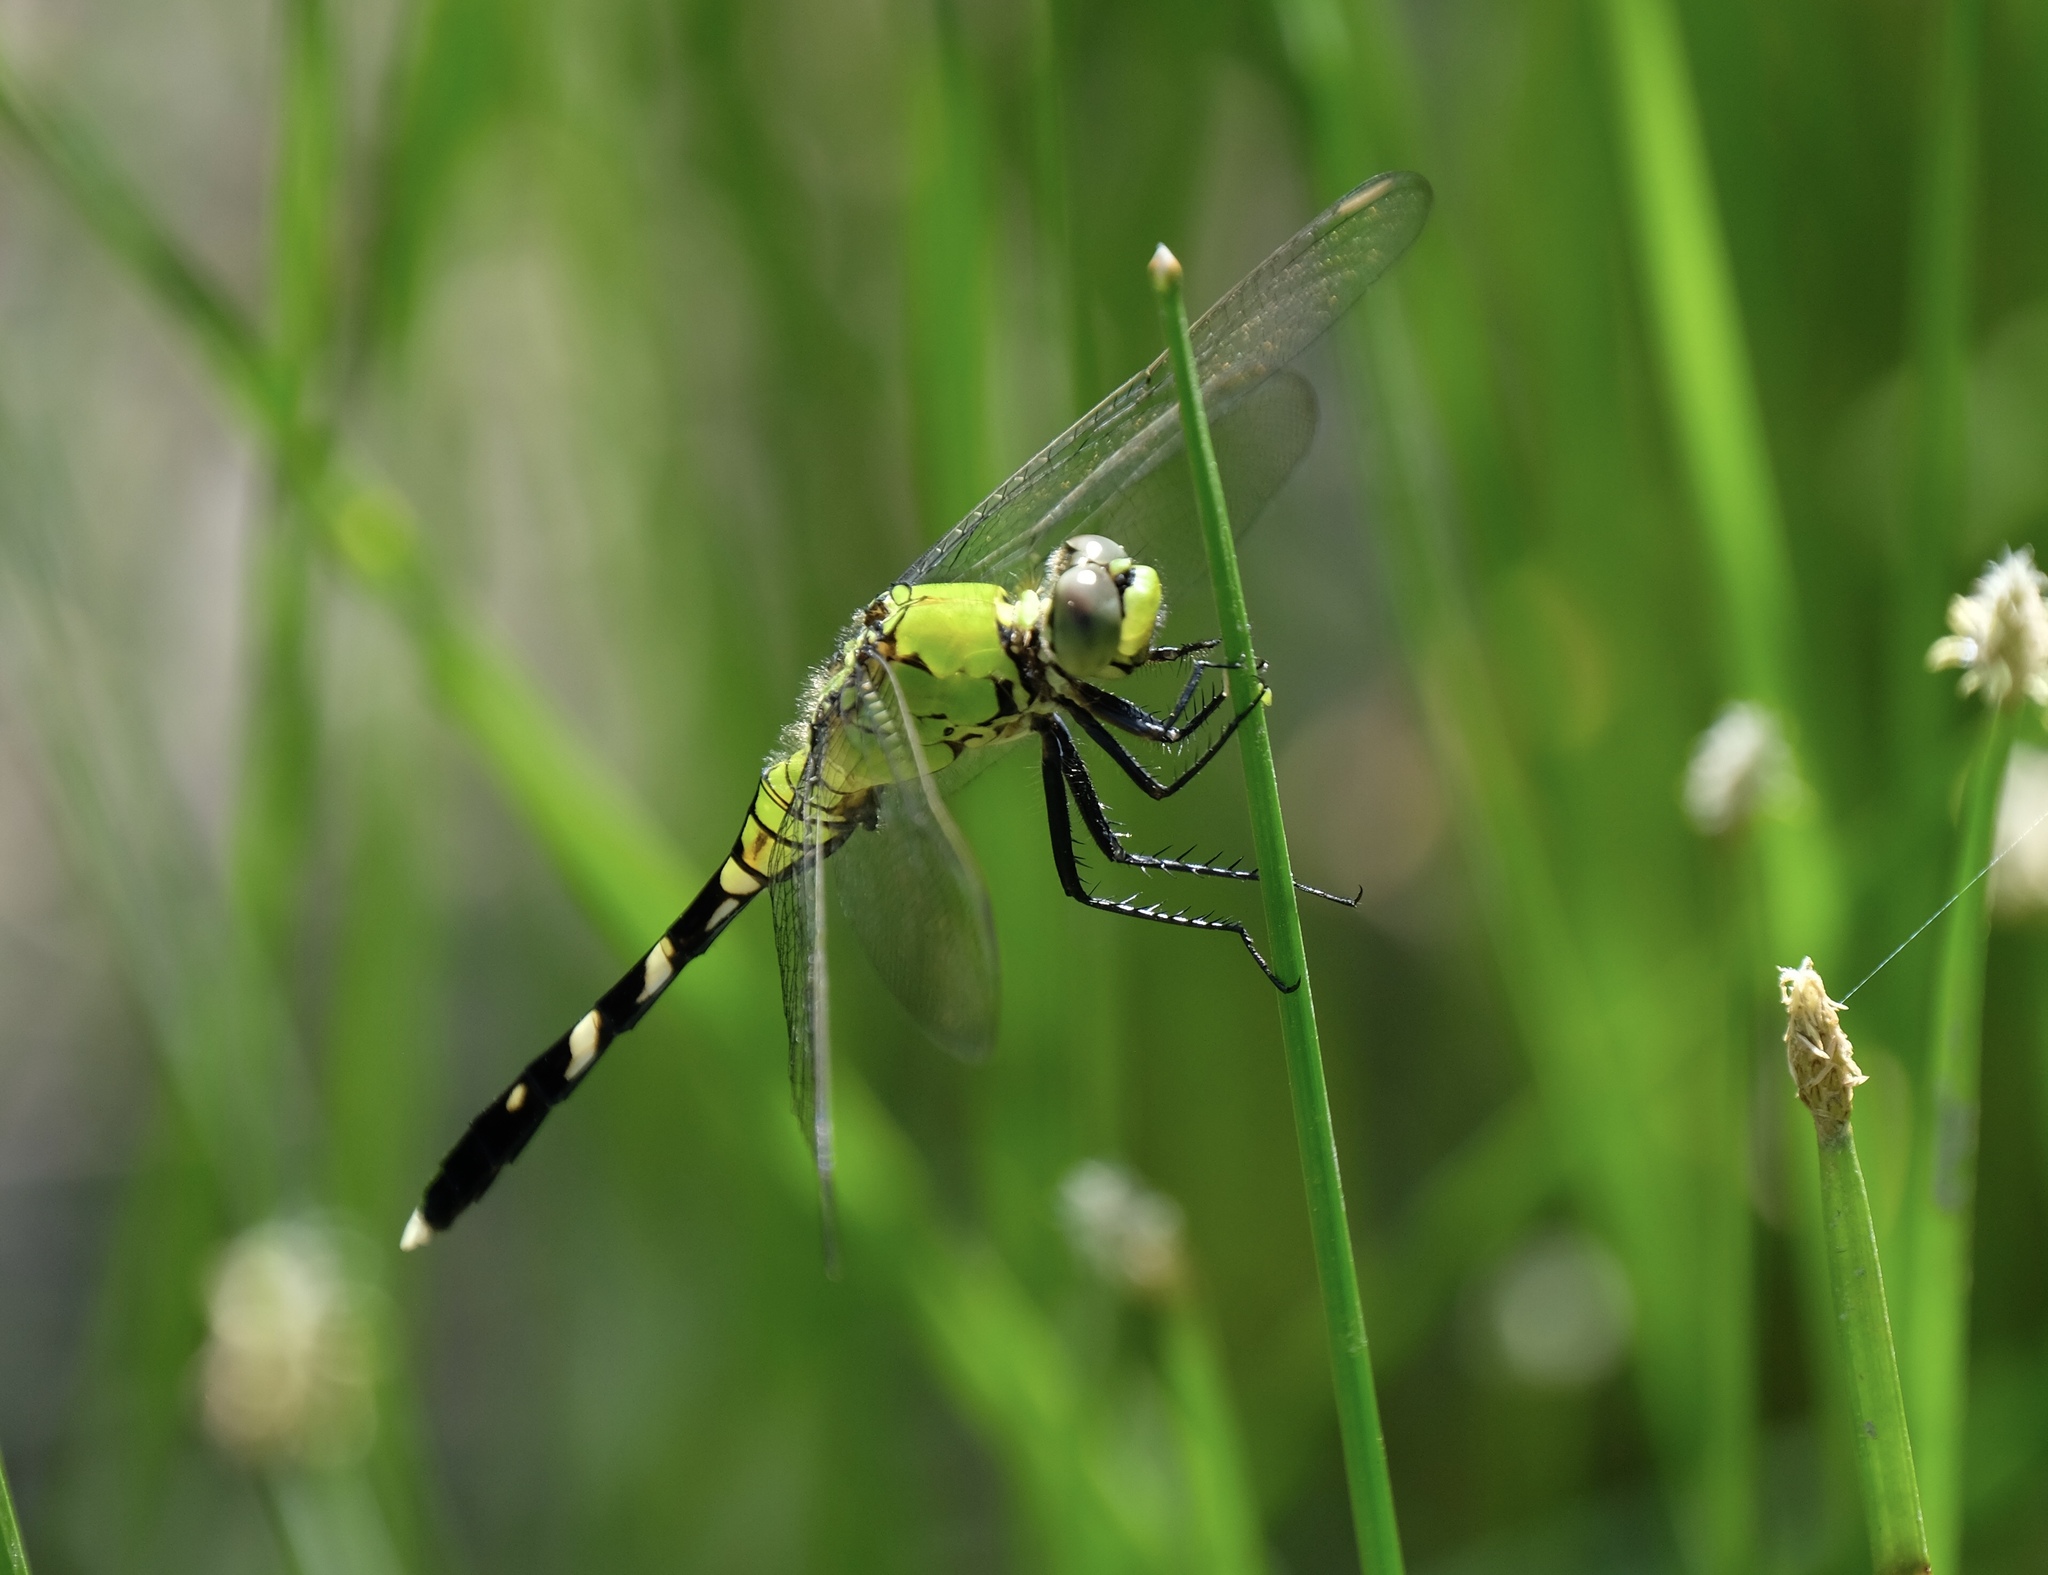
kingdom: Animalia
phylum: Arthropoda
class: Insecta
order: Odonata
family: Libellulidae
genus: Erythemis
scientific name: Erythemis simplicicollis
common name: Eastern pondhawk
